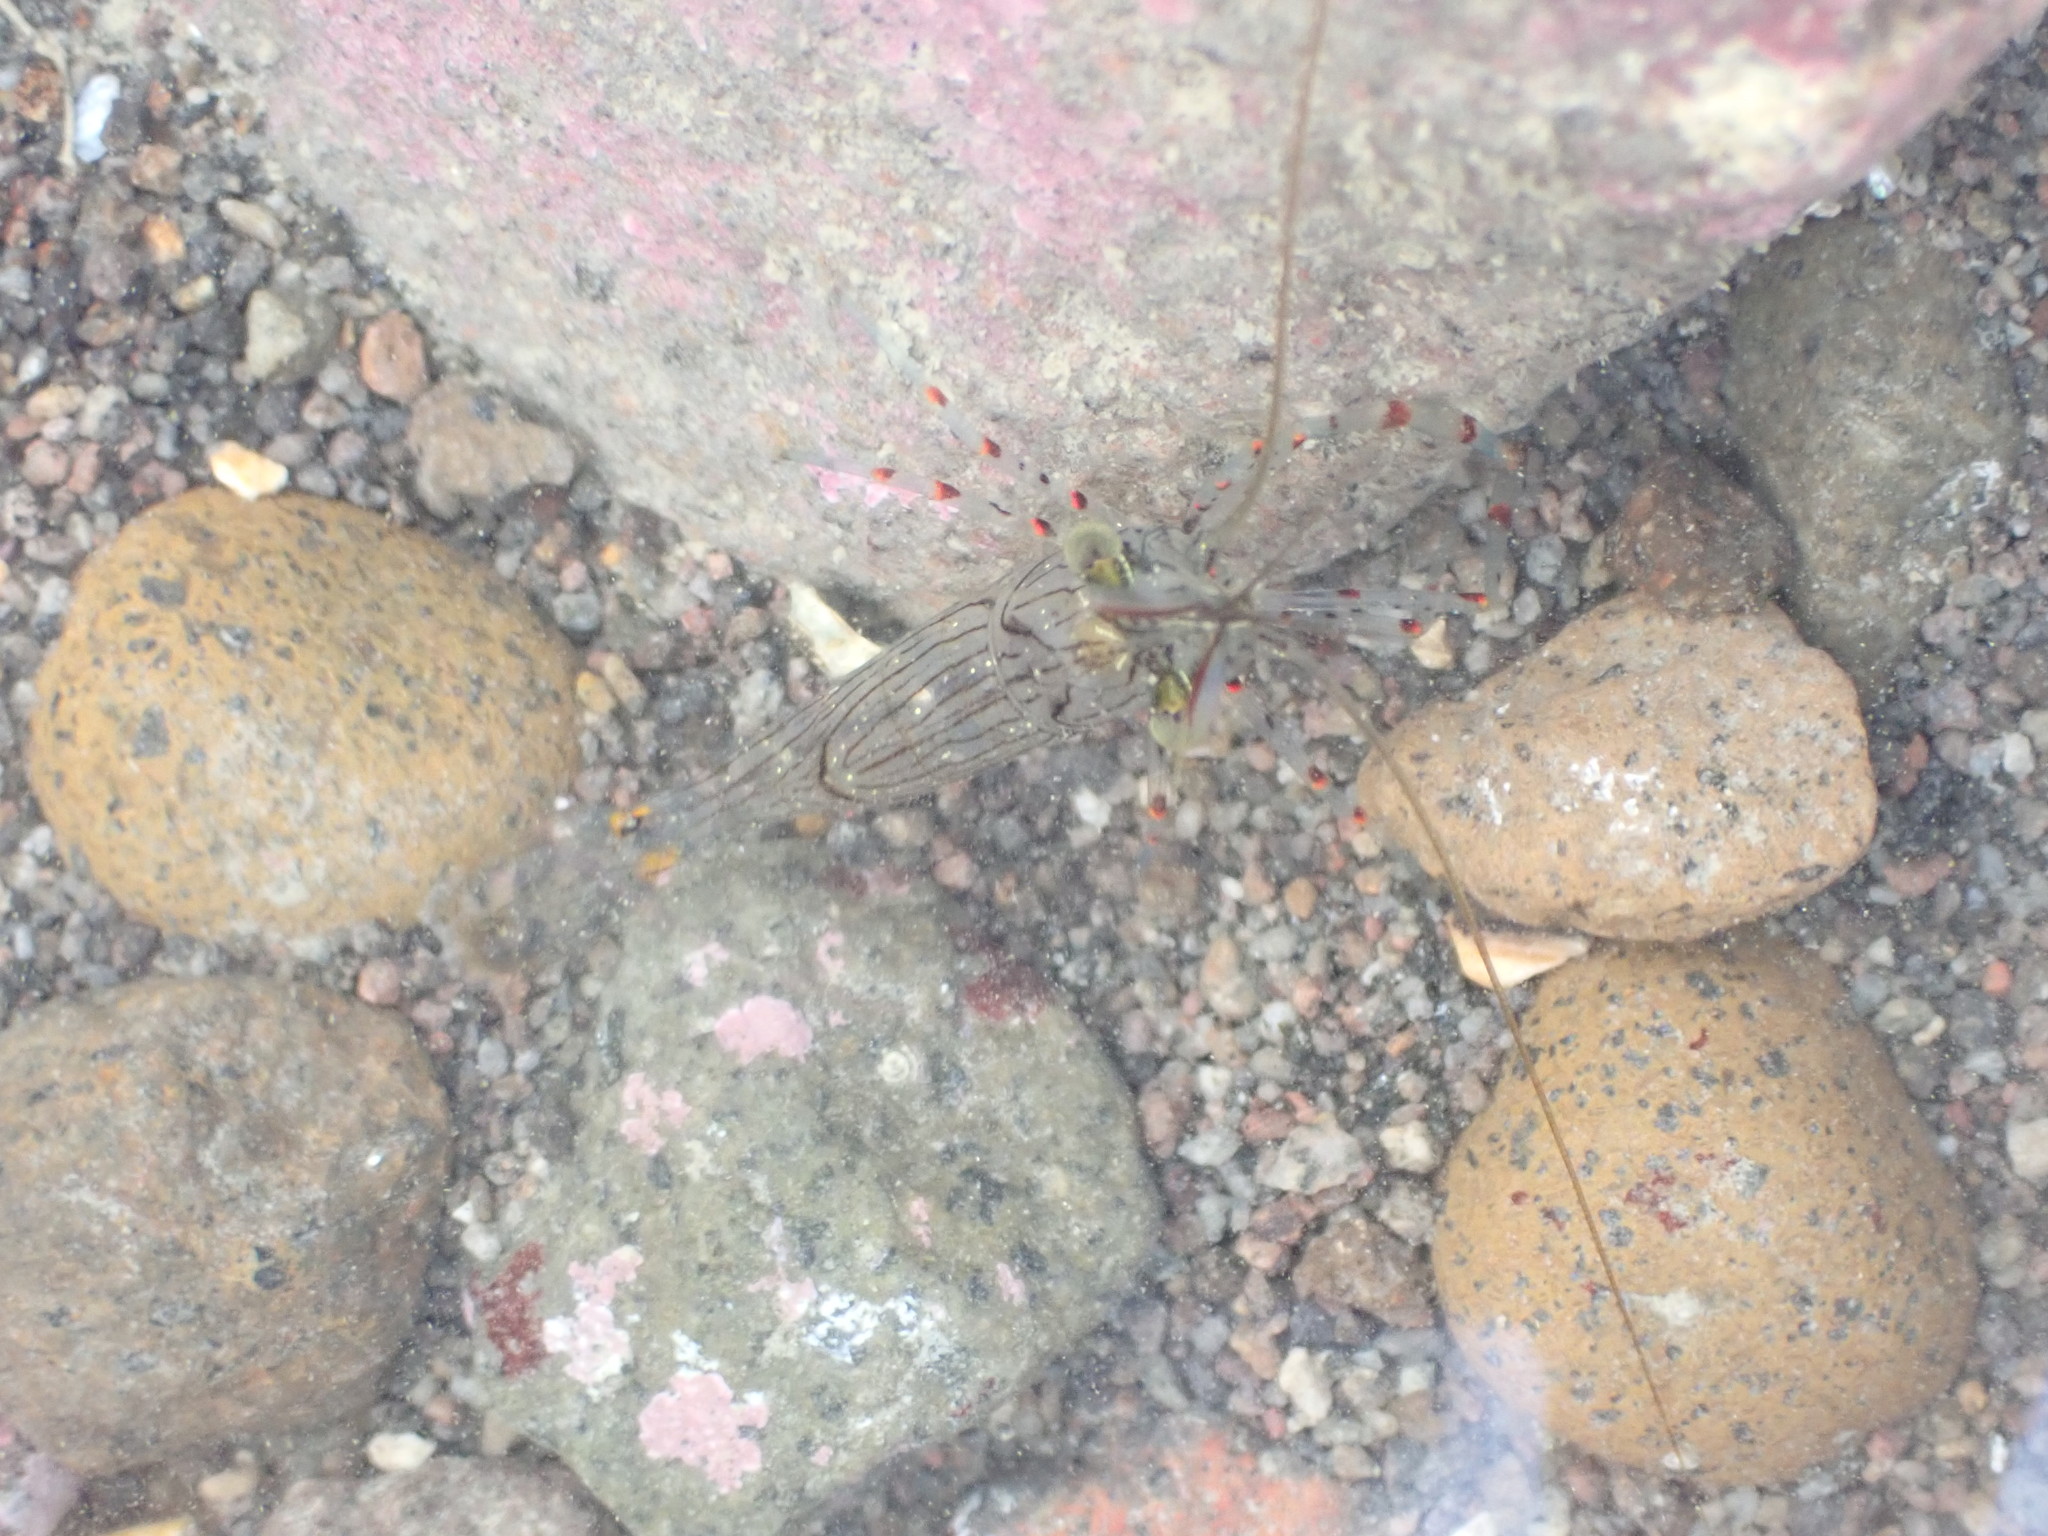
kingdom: Animalia
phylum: Arthropoda
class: Malacostraca
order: Decapoda
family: Palaemonidae
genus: Palaemon
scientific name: Palaemon affinis
